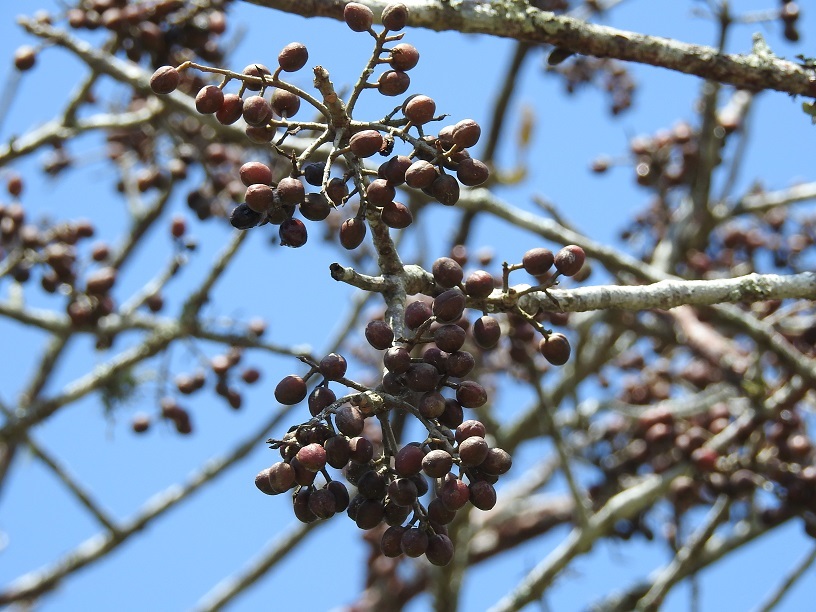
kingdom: Plantae
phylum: Tracheophyta
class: Magnoliopsida
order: Sapindales
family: Burseraceae
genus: Bursera
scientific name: Bursera simaruba
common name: Turpentine tree
